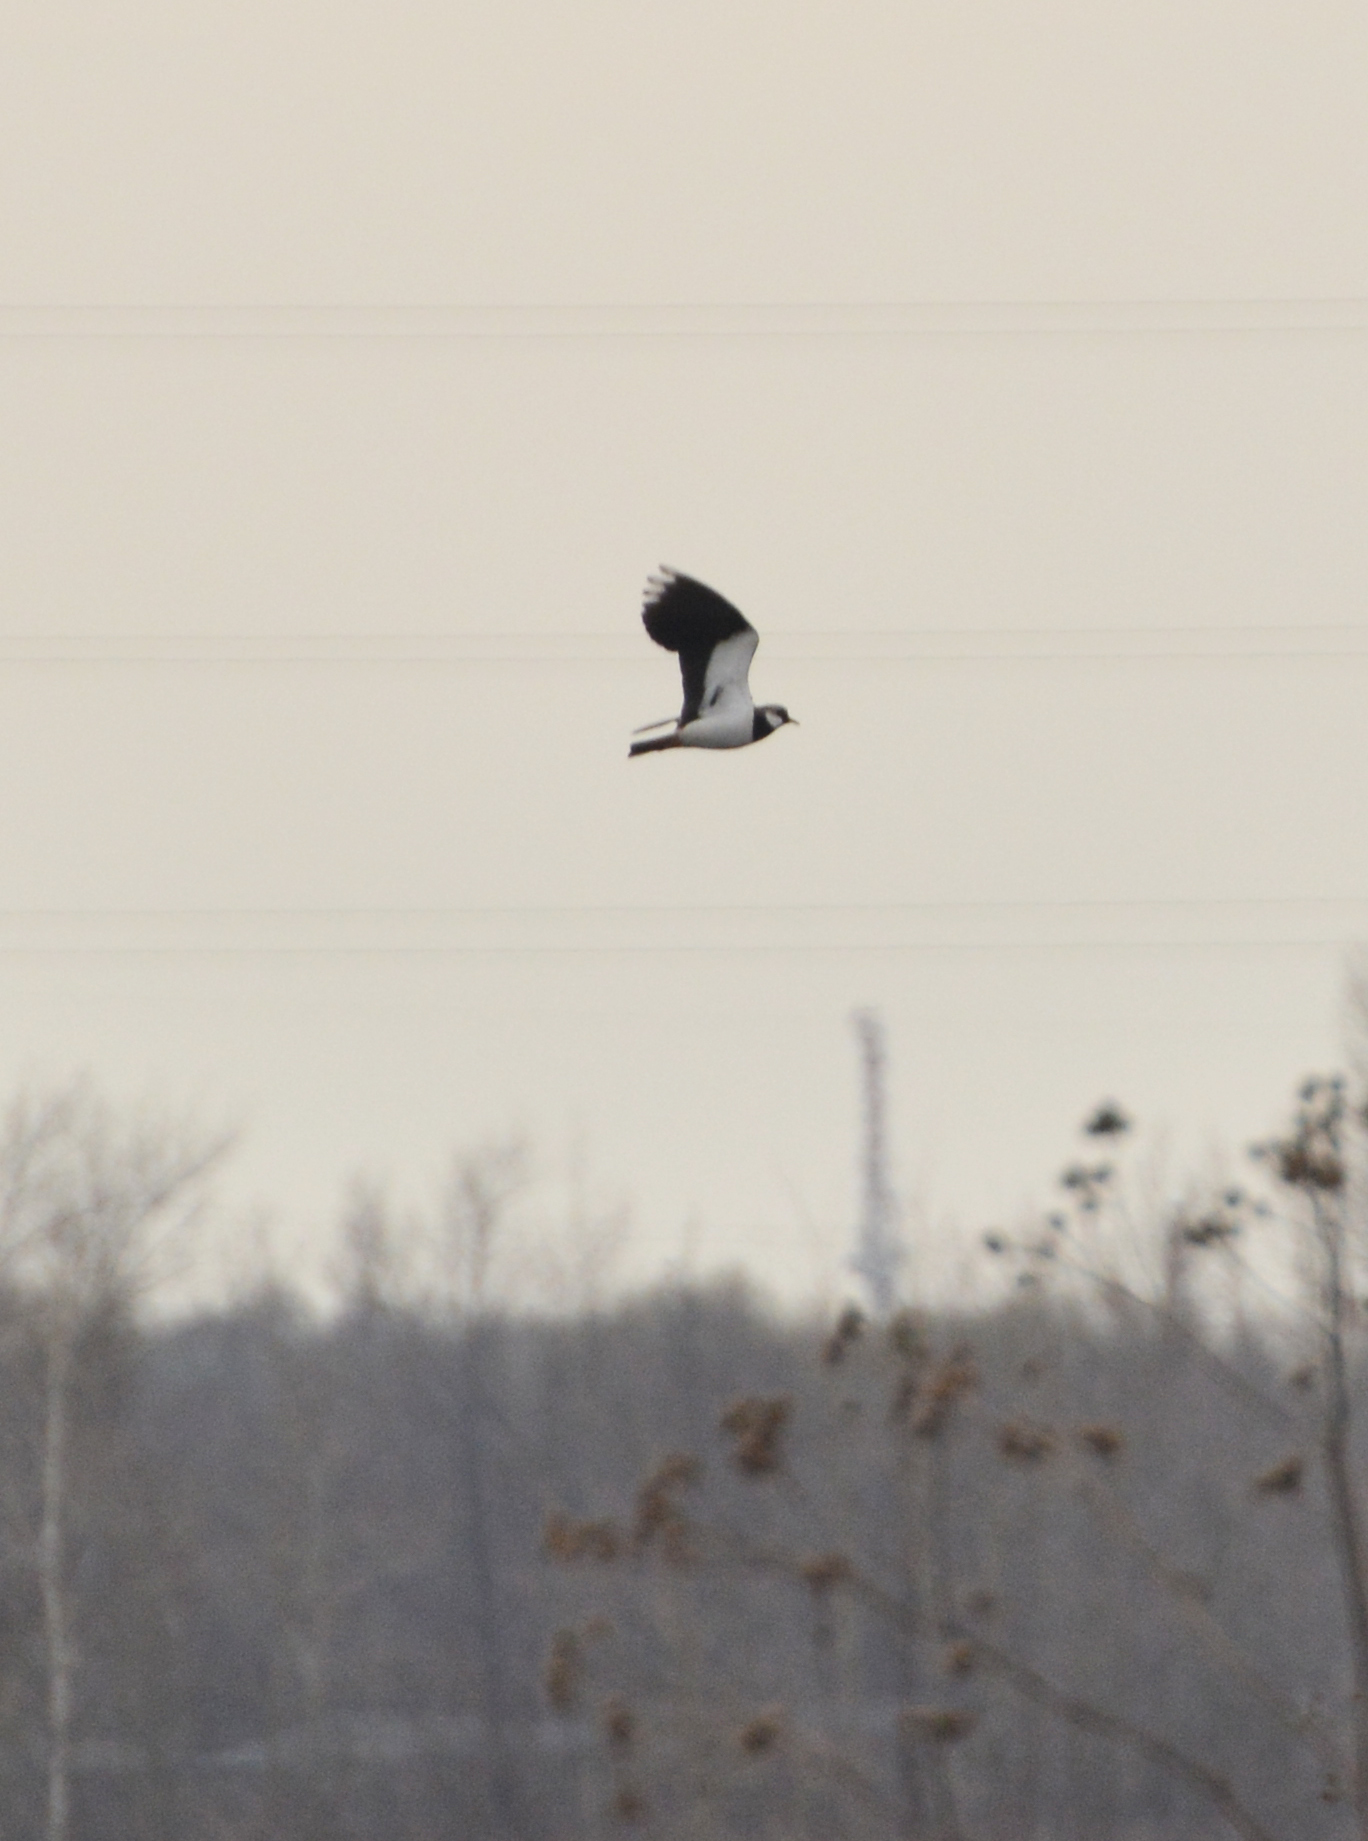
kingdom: Animalia
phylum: Chordata
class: Aves
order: Charadriiformes
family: Charadriidae
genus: Vanellus
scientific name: Vanellus vanellus
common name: Northern lapwing
